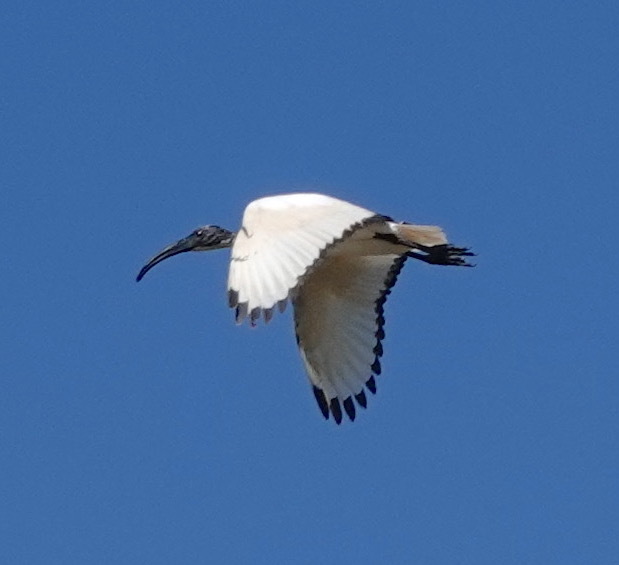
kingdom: Animalia
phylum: Chordata
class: Aves
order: Pelecaniformes
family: Threskiornithidae
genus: Threskiornis
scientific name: Threskiornis aethiopicus
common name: Sacred ibis
